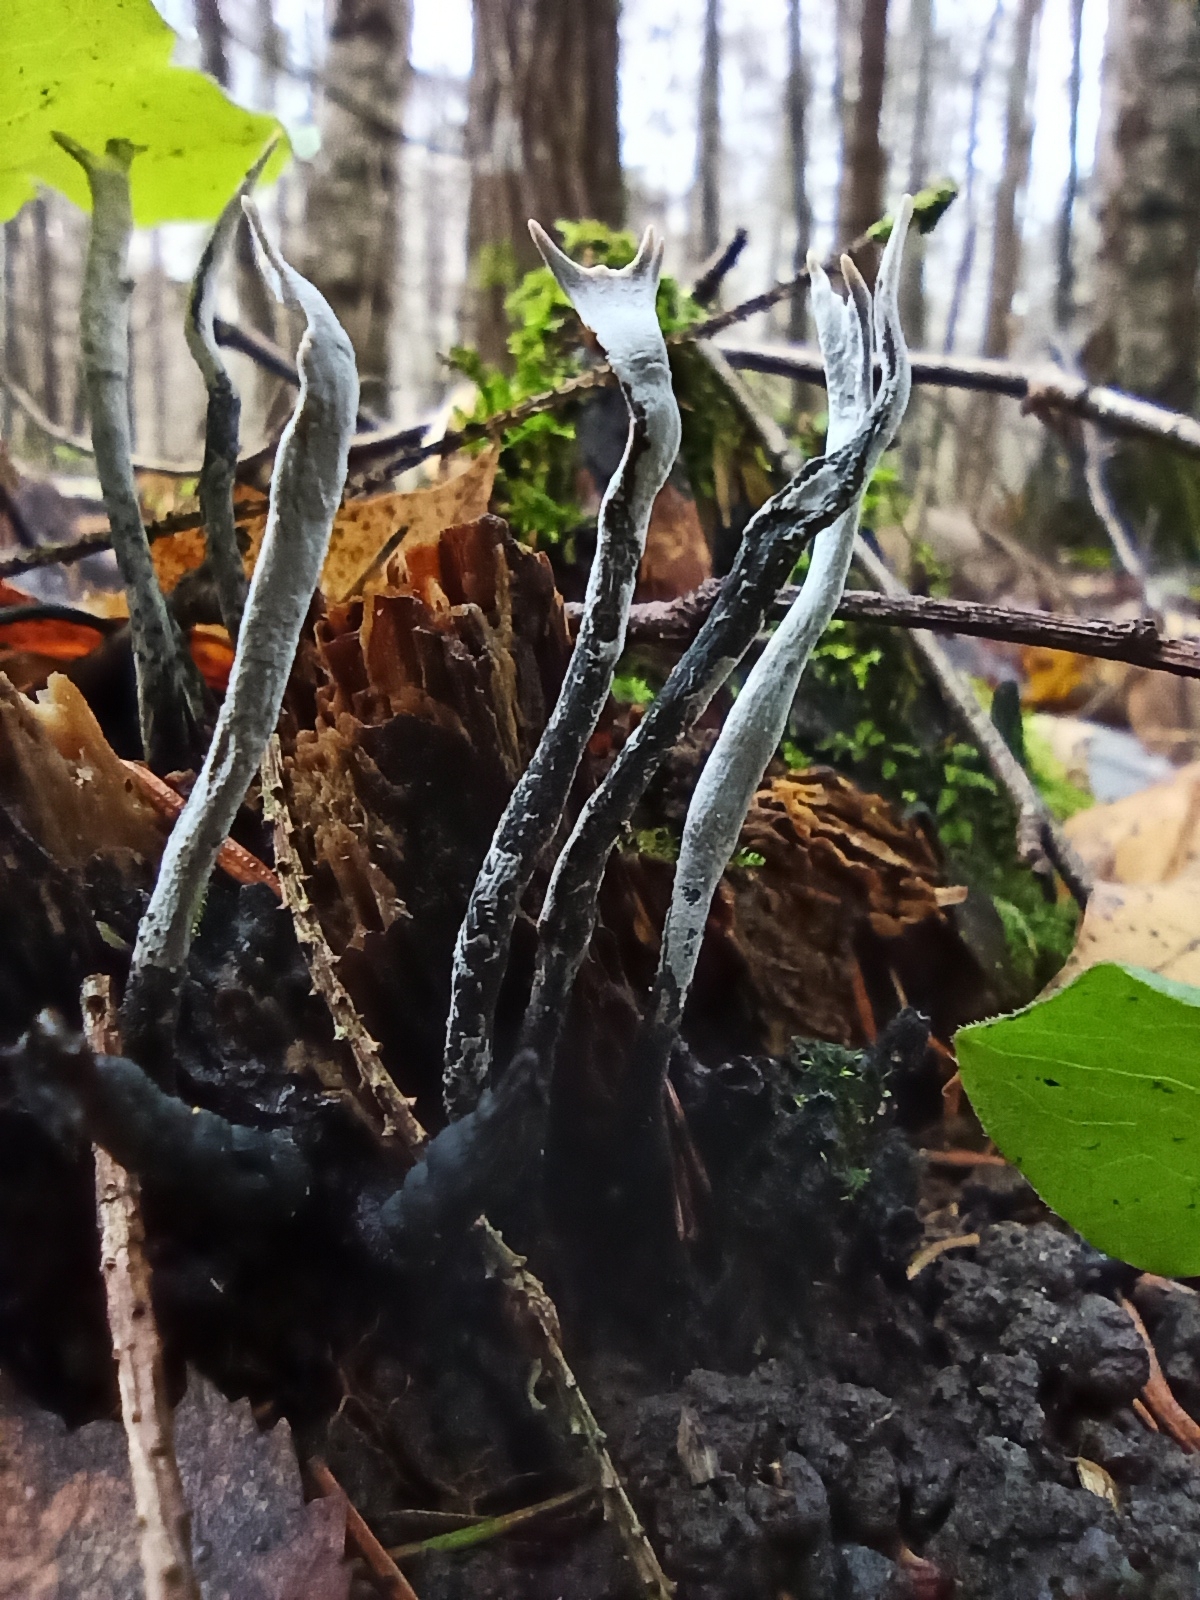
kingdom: Fungi
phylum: Ascomycota
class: Sordariomycetes
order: Xylariales
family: Xylariaceae
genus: Xylaria
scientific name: Xylaria hypoxylon
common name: Candle-snuff fungus
